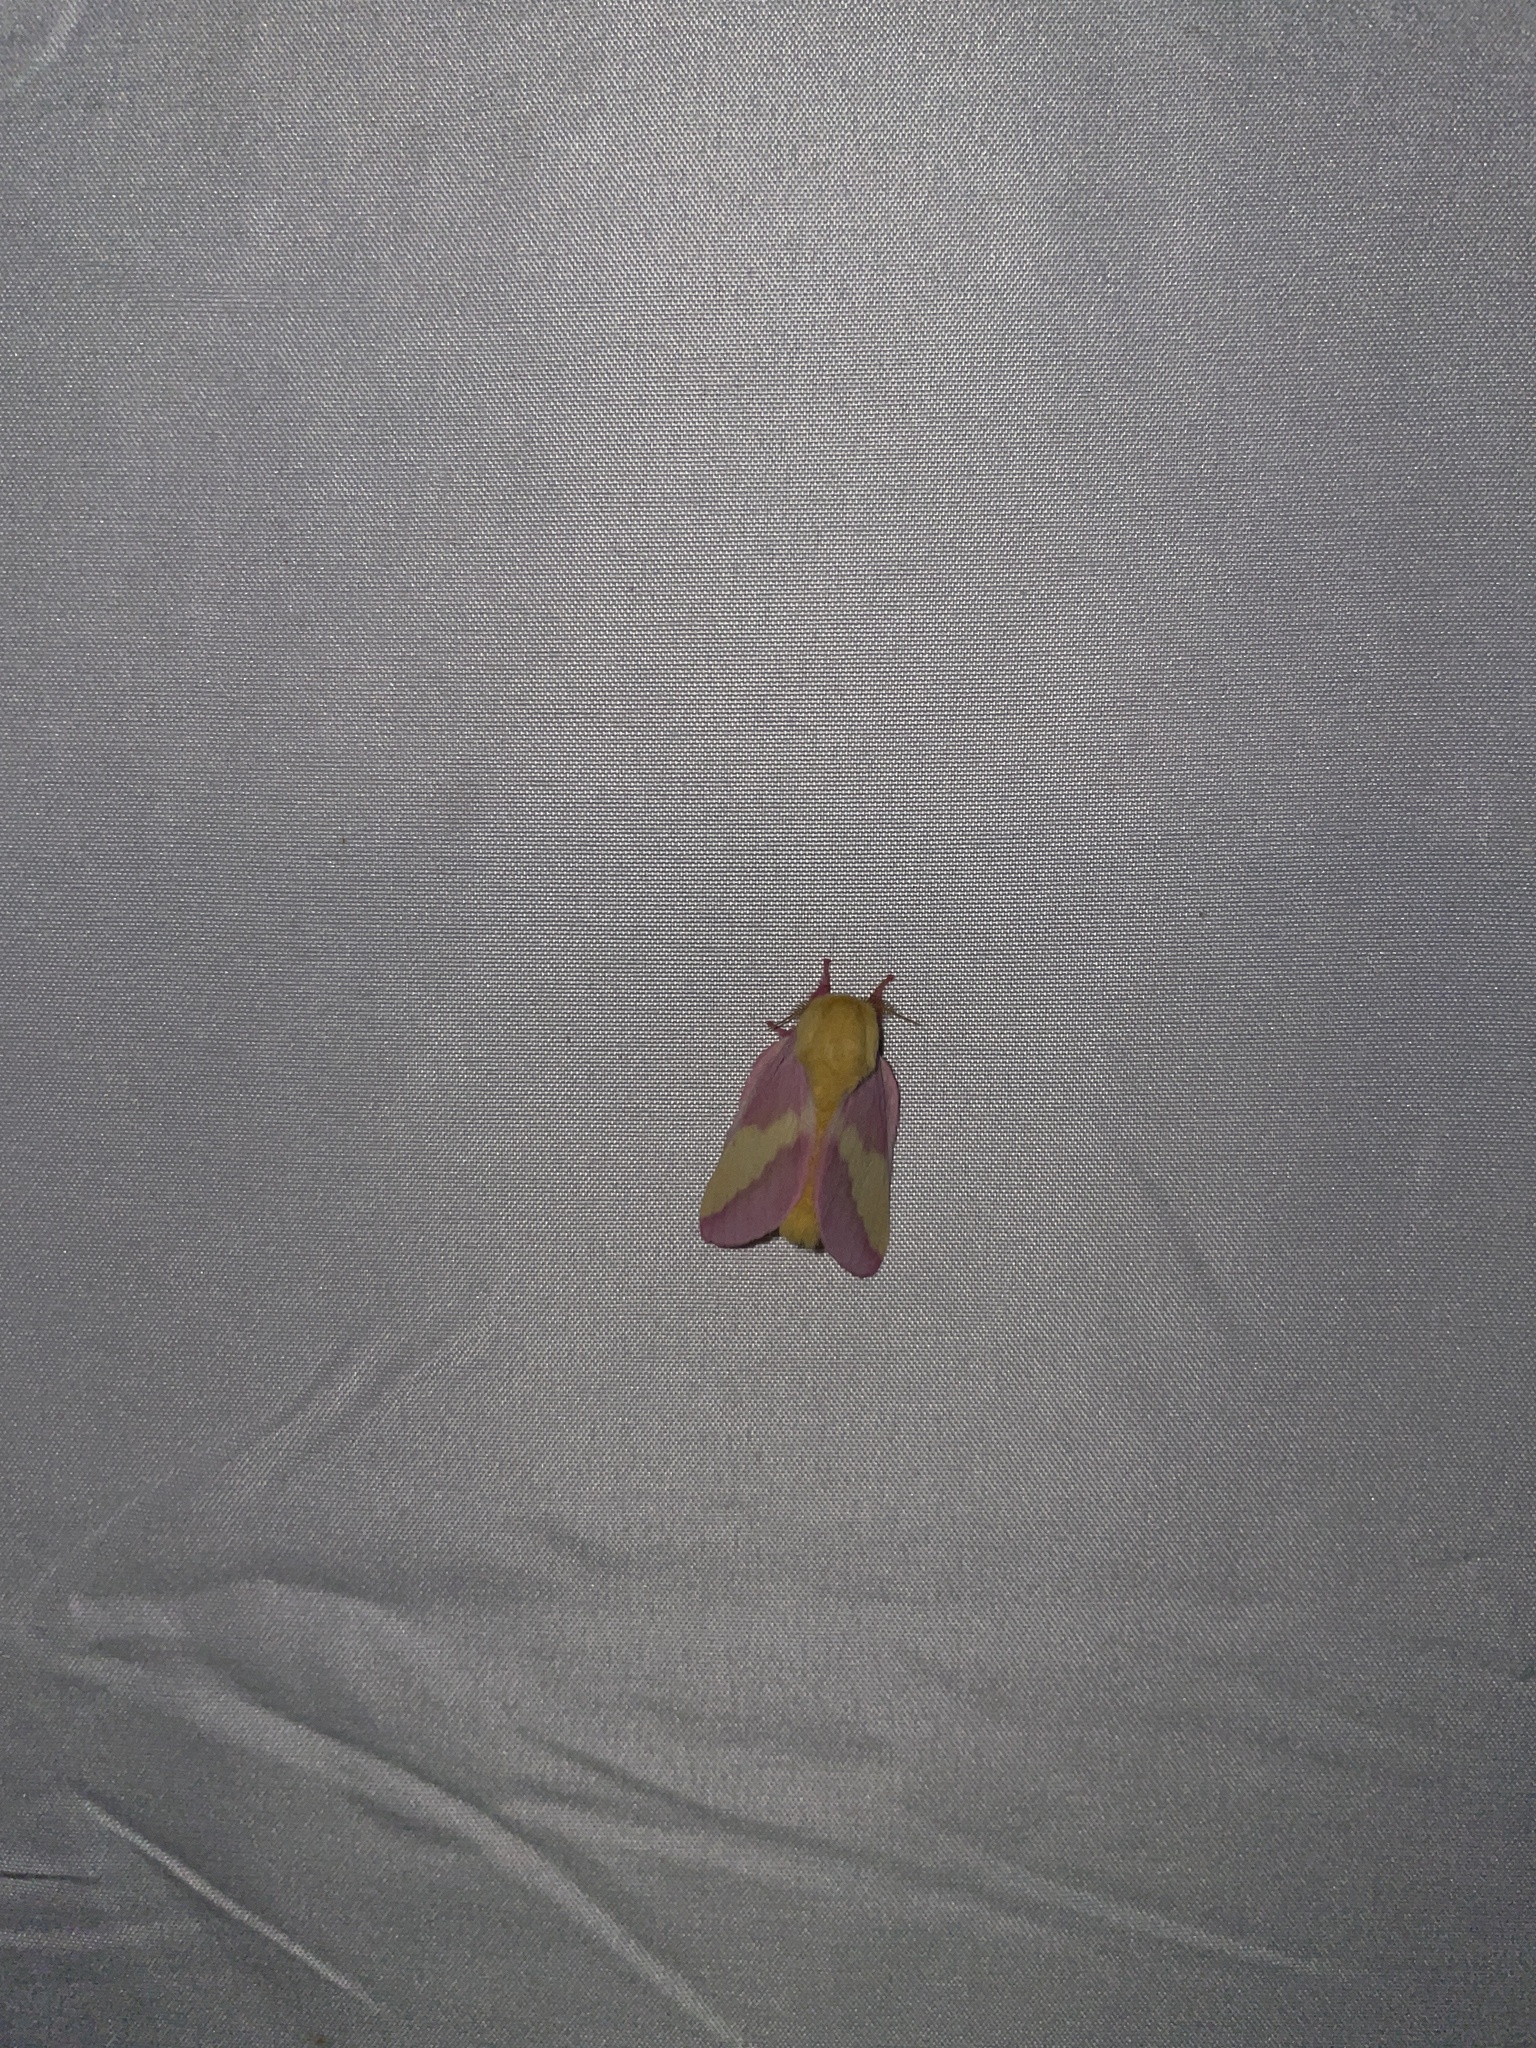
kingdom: Animalia
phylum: Arthropoda
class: Insecta
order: Lepidoptera
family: Saturniidae
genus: Dryocampa
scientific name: Dryocampa rubicunda
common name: Rosy maple moth
